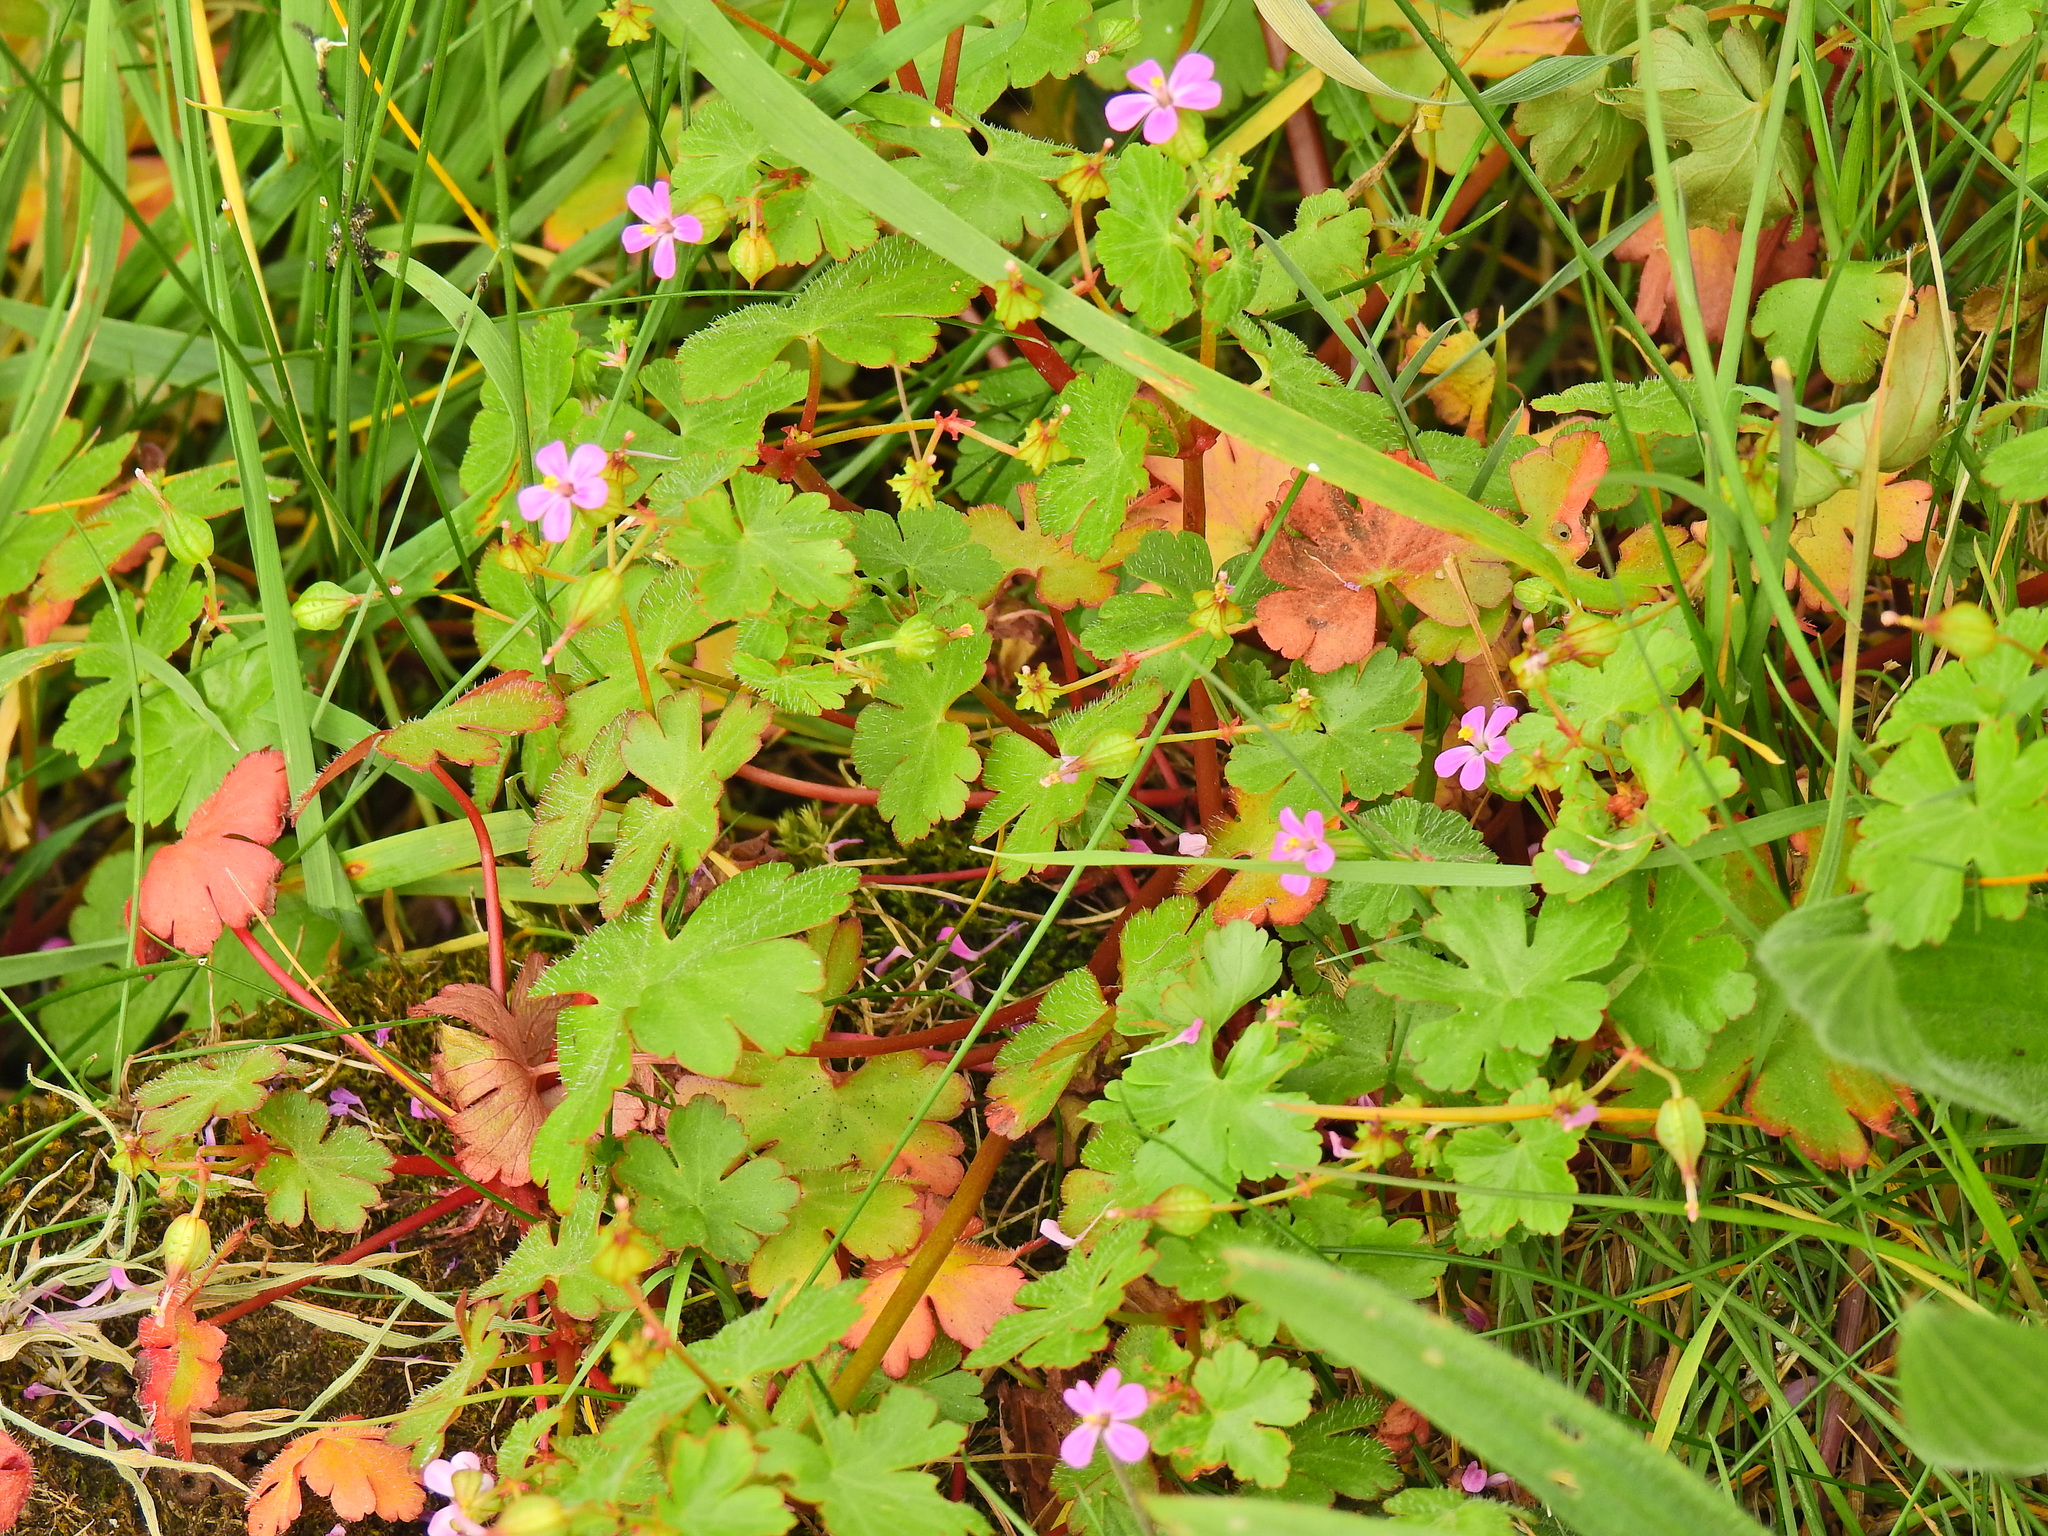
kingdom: Plantae
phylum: Tracheophyta
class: Magnoliopsida
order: Geraniales
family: Geraniaceae
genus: Geranium
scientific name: Geranium lucidum
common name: Shining crane's-bill
